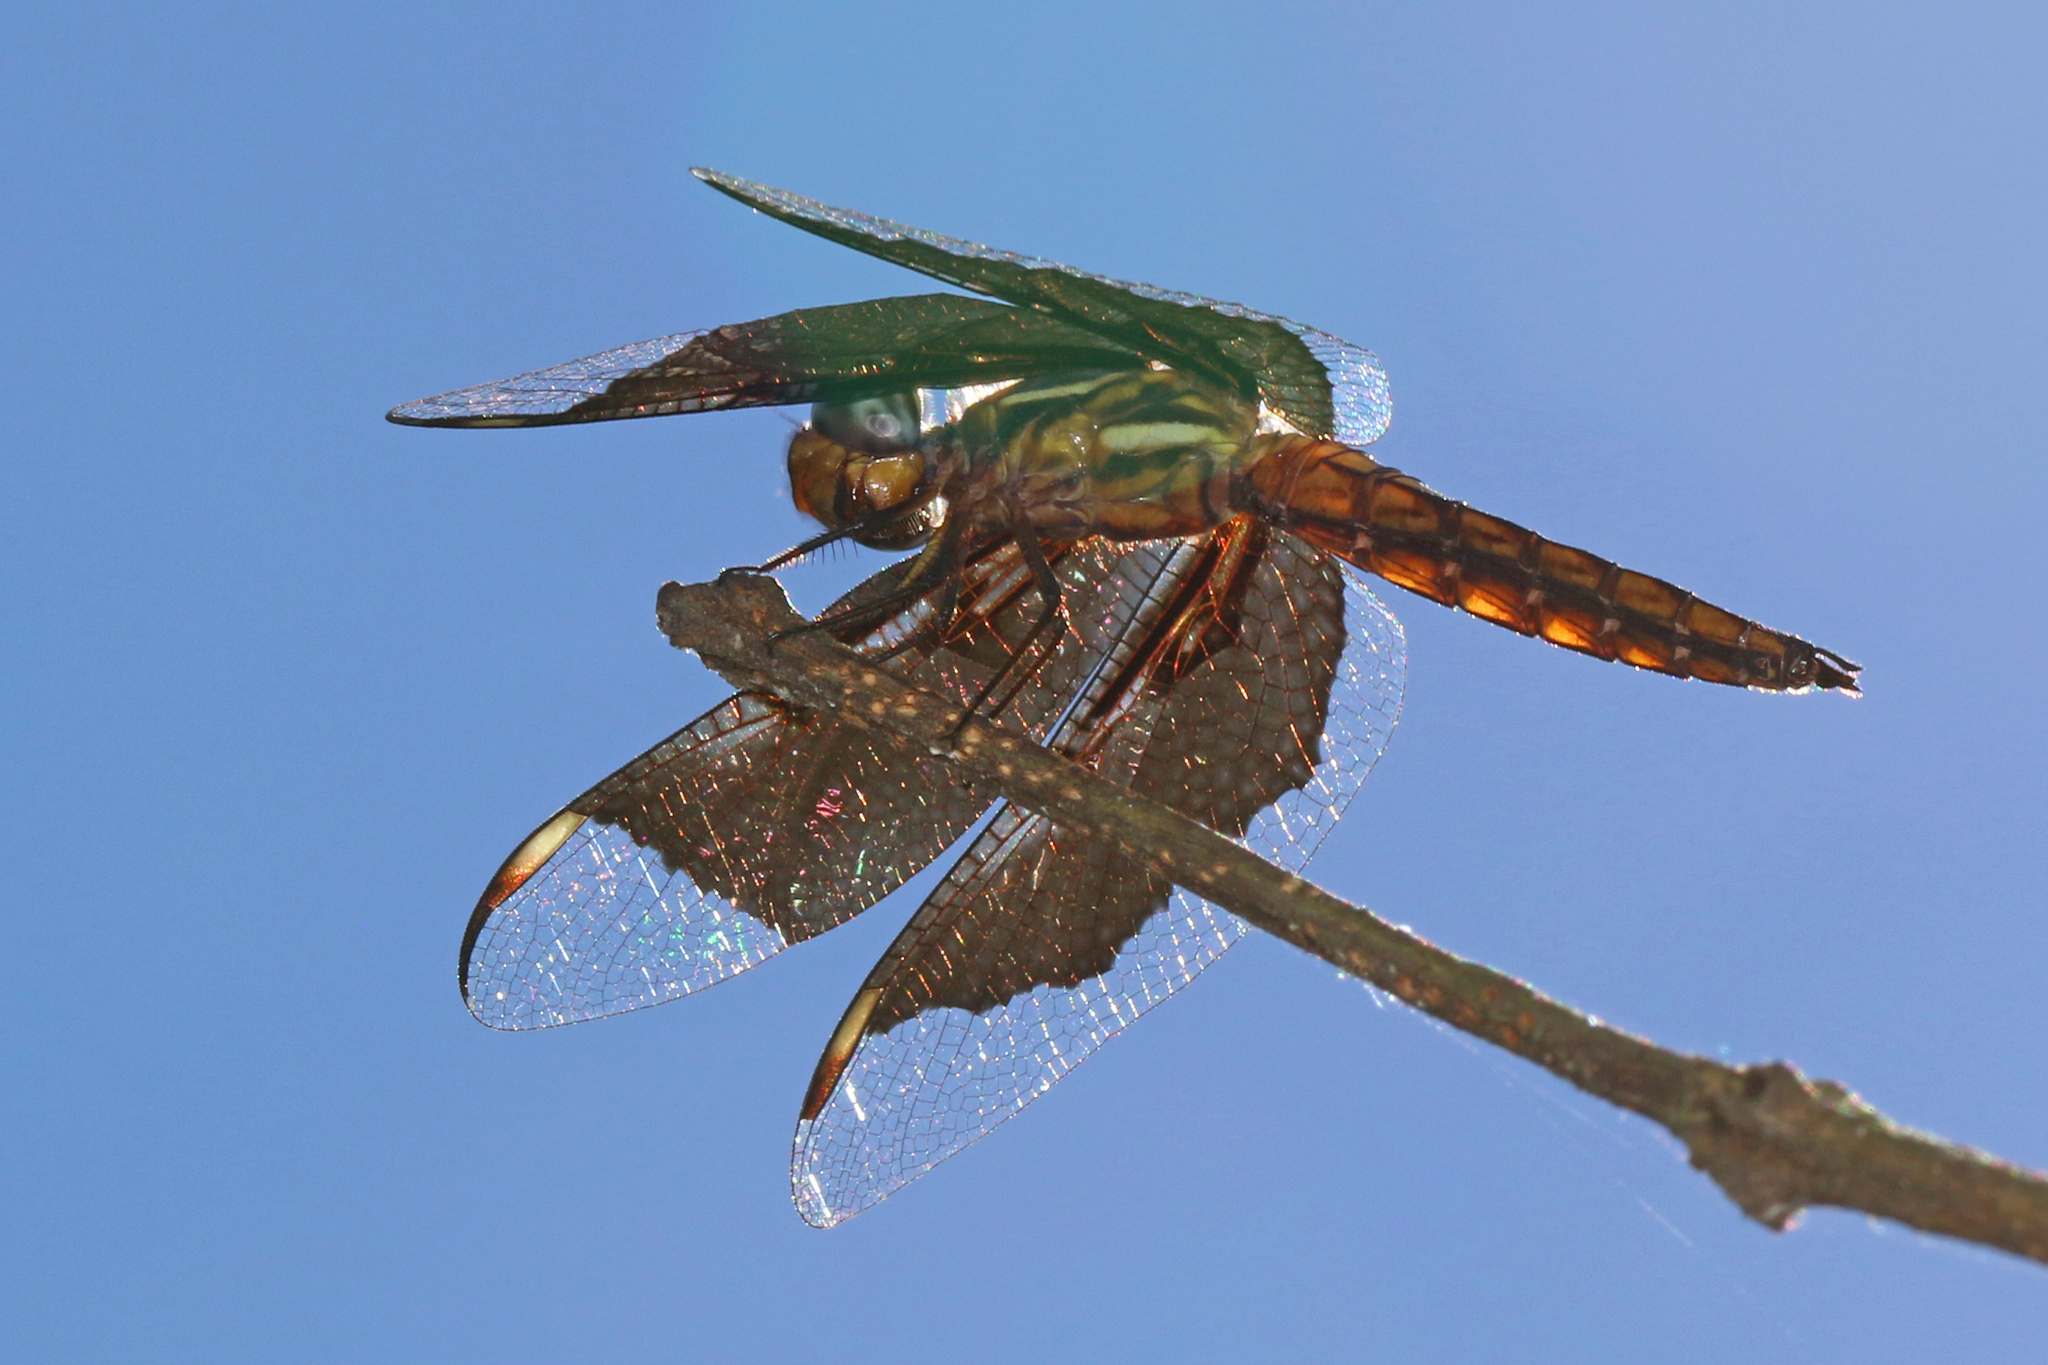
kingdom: Animalia
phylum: Arthropoda
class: Insecta
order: Odonata
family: Libellulidae
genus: Palpopleura
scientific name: Palpopleura lucia
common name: Lucia widow
